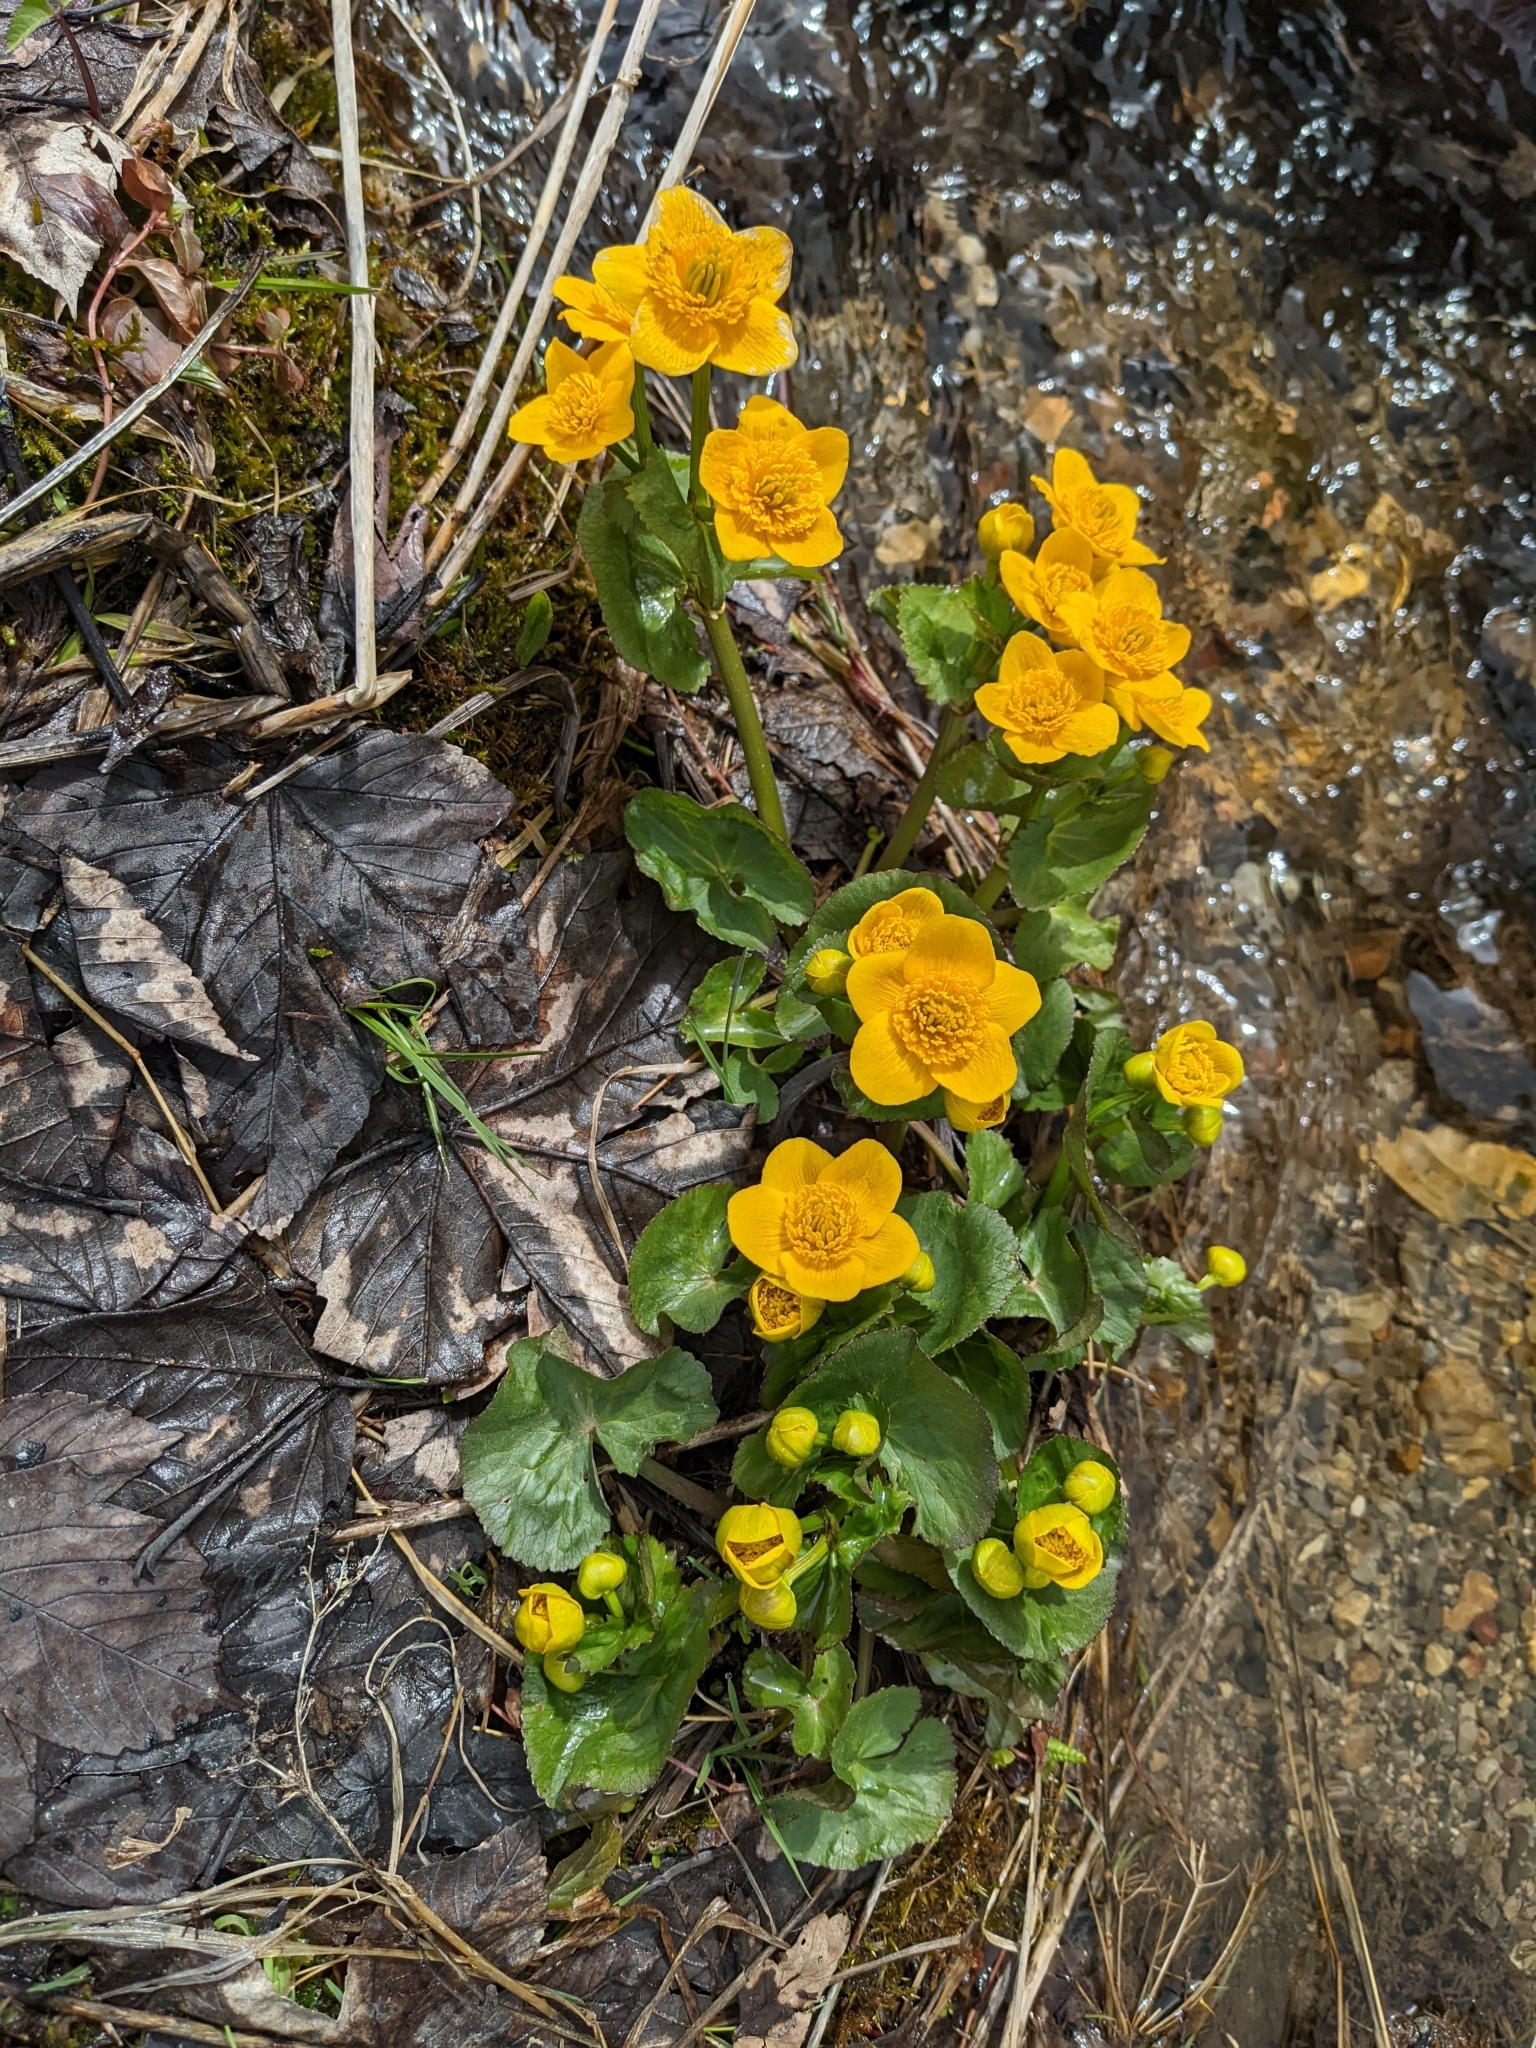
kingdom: Plantae
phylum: Tracheophyta
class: Magnoliopsida
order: Ranunculales
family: Ranunculaceae
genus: Caltha
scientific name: Caltha palustris
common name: Marsh marigold
